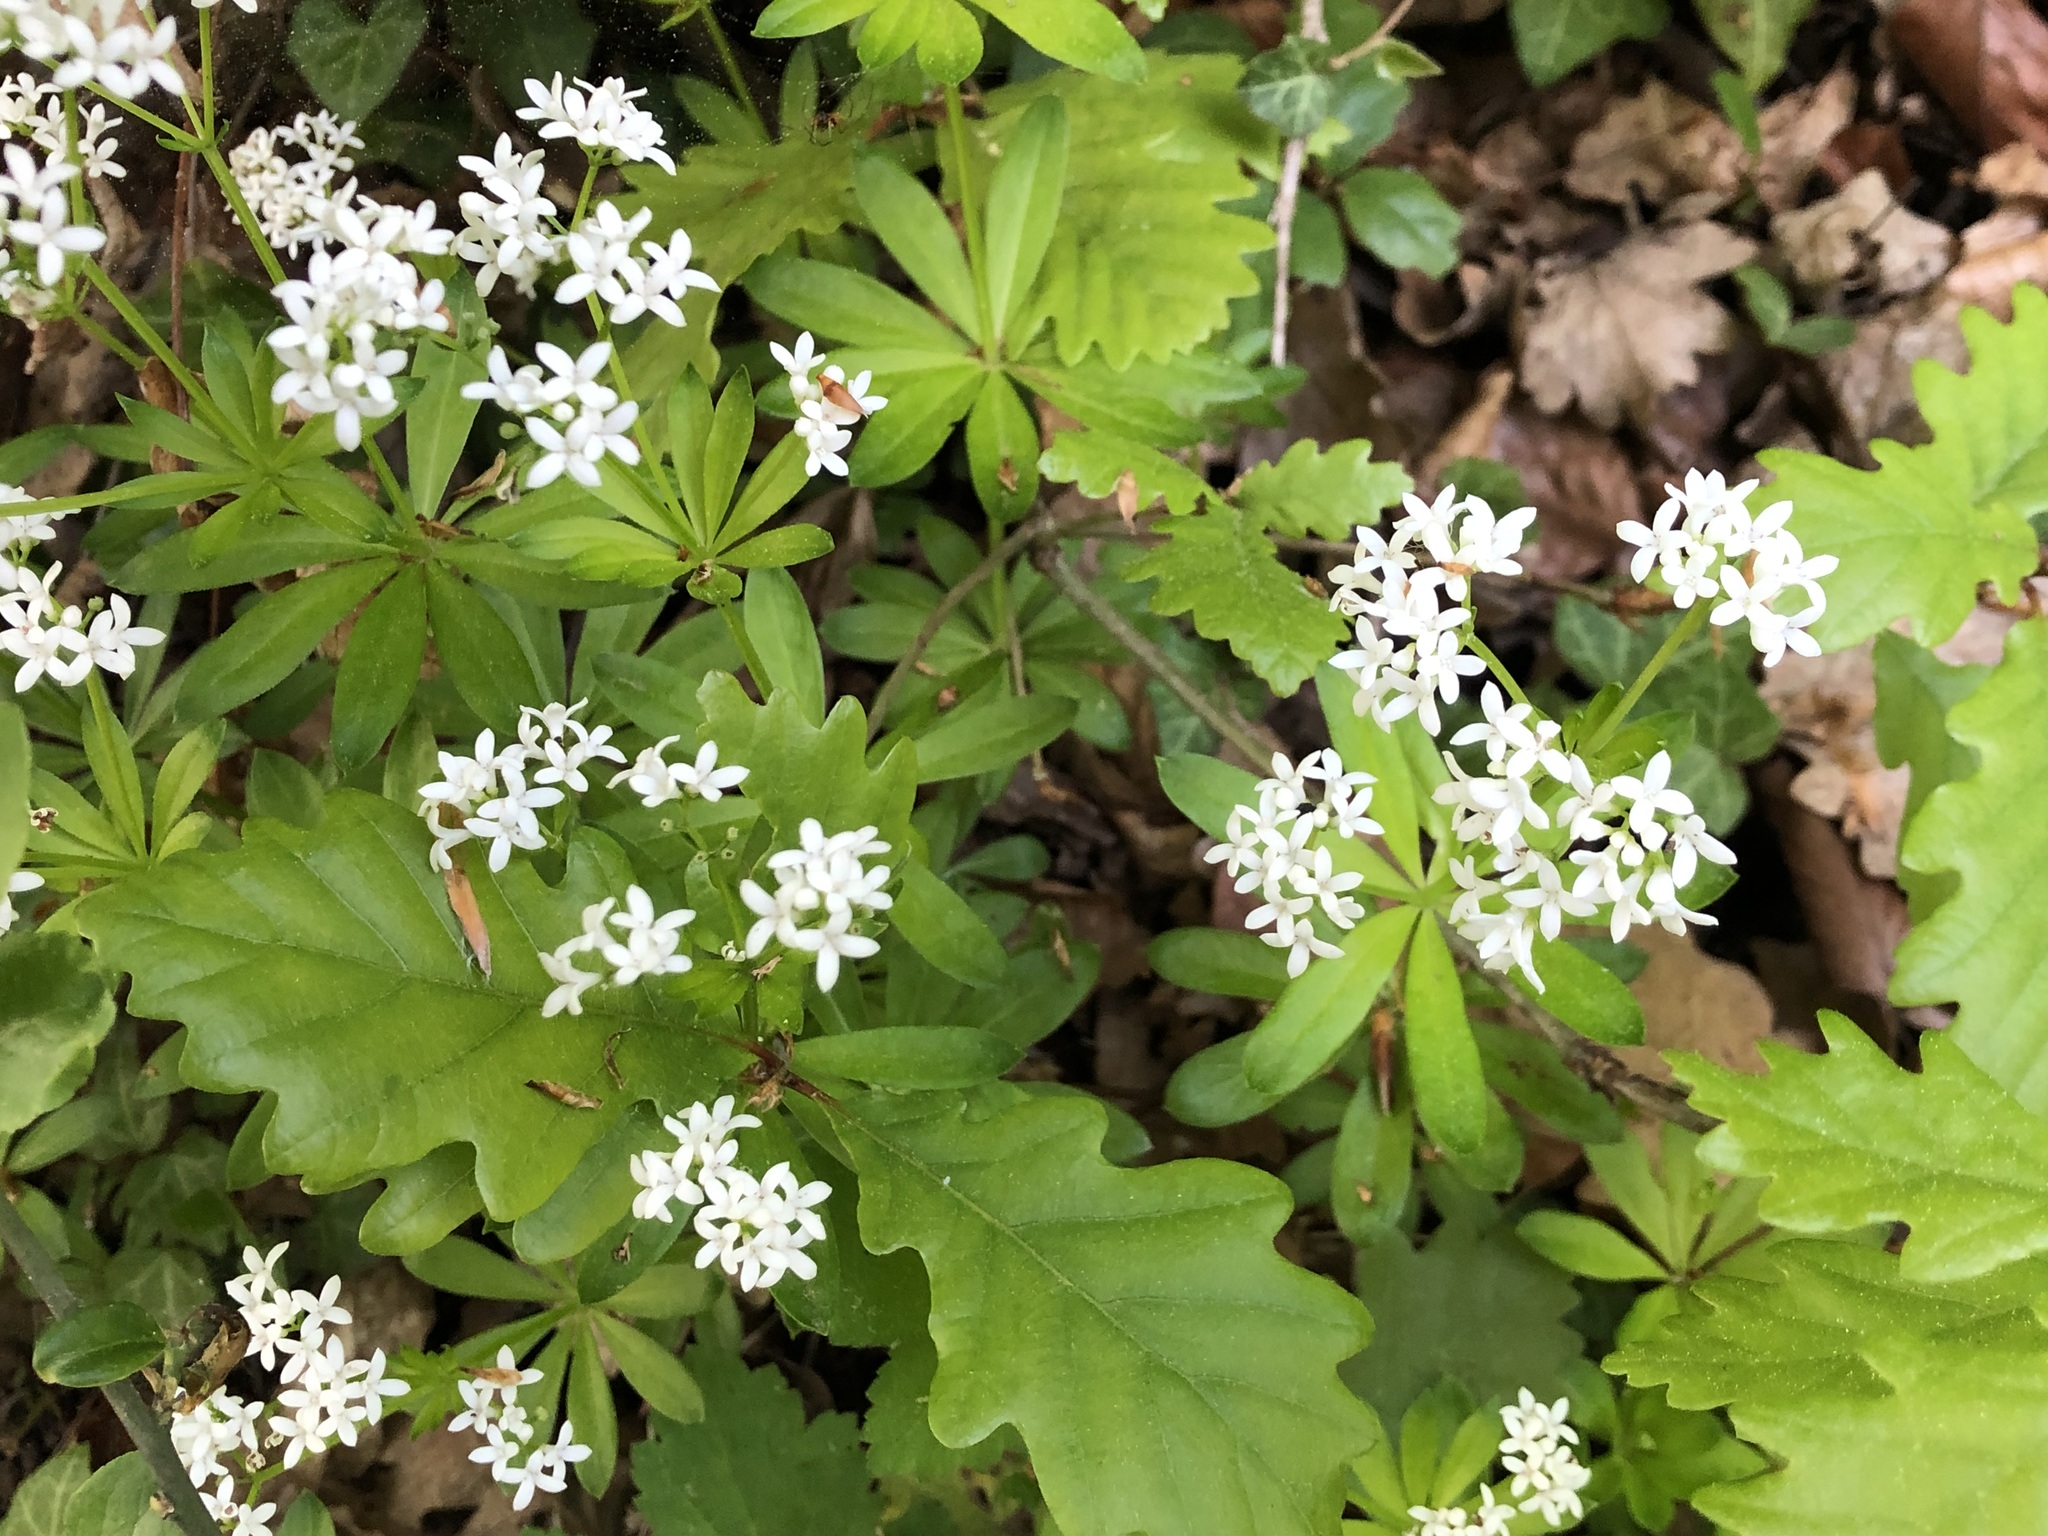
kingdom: Plantae
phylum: Tracheophyta
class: Magnoliopsida
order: Gentianales
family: Rubiaceae
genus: Galium
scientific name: Galium odoratum
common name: Sweet woodruff
